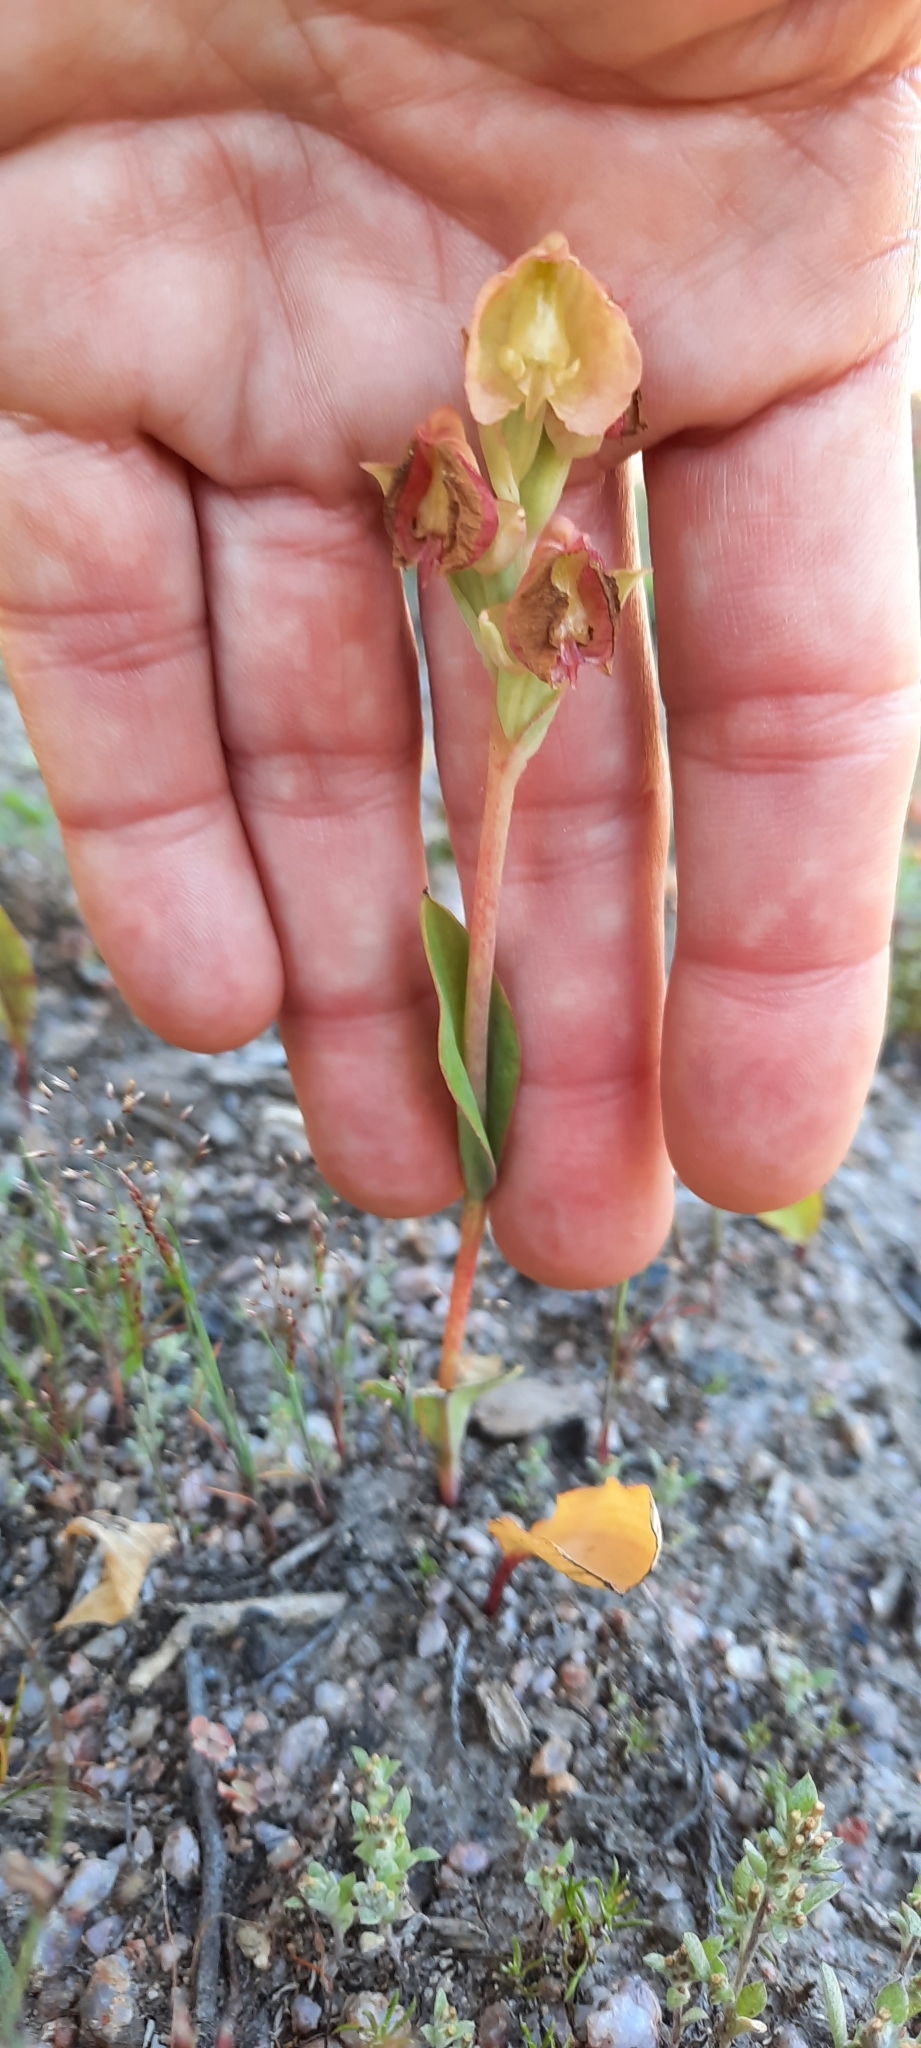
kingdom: Plantae
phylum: Tracheophyta
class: Liliopsida
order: Asparagales
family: Orchidaceae
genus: Pterygodium
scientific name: Pterygodium catholicum
